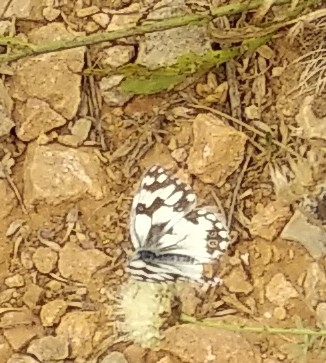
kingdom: Animalia
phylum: Arthropoda
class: Insecta
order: Lepidoptera
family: Nymphalidae
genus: Melanargia
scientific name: Melanargia lachesis
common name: Iberian marbled white
